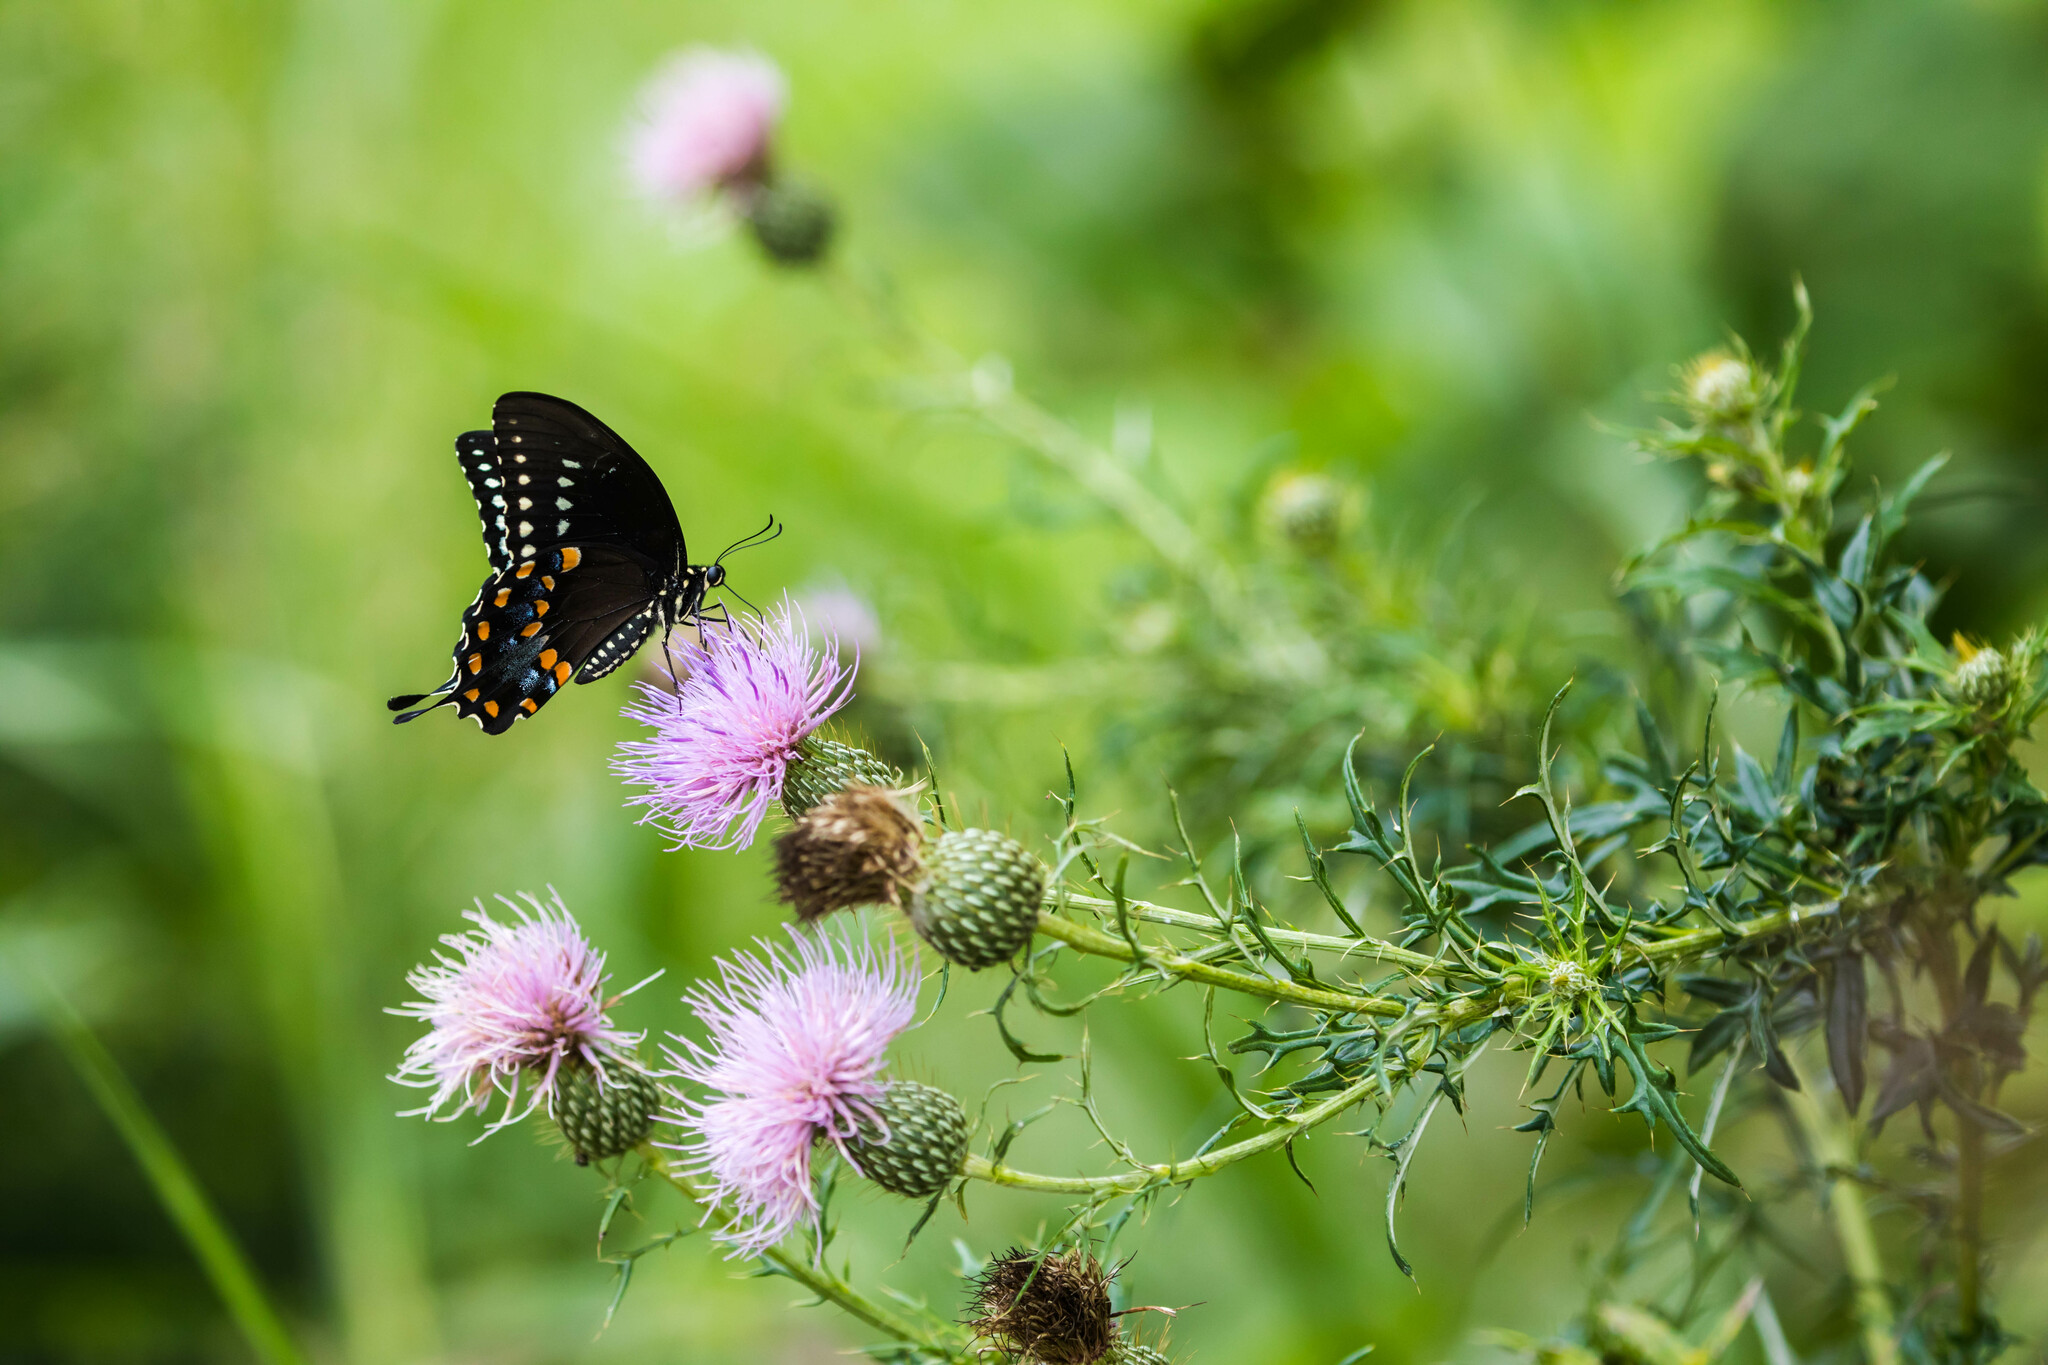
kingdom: Animalia
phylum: Arthropoda
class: Insecta
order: Lepidoptera
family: Papilionidae
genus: Papilio
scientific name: Papilio troilus
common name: Spicebush swallowtail
